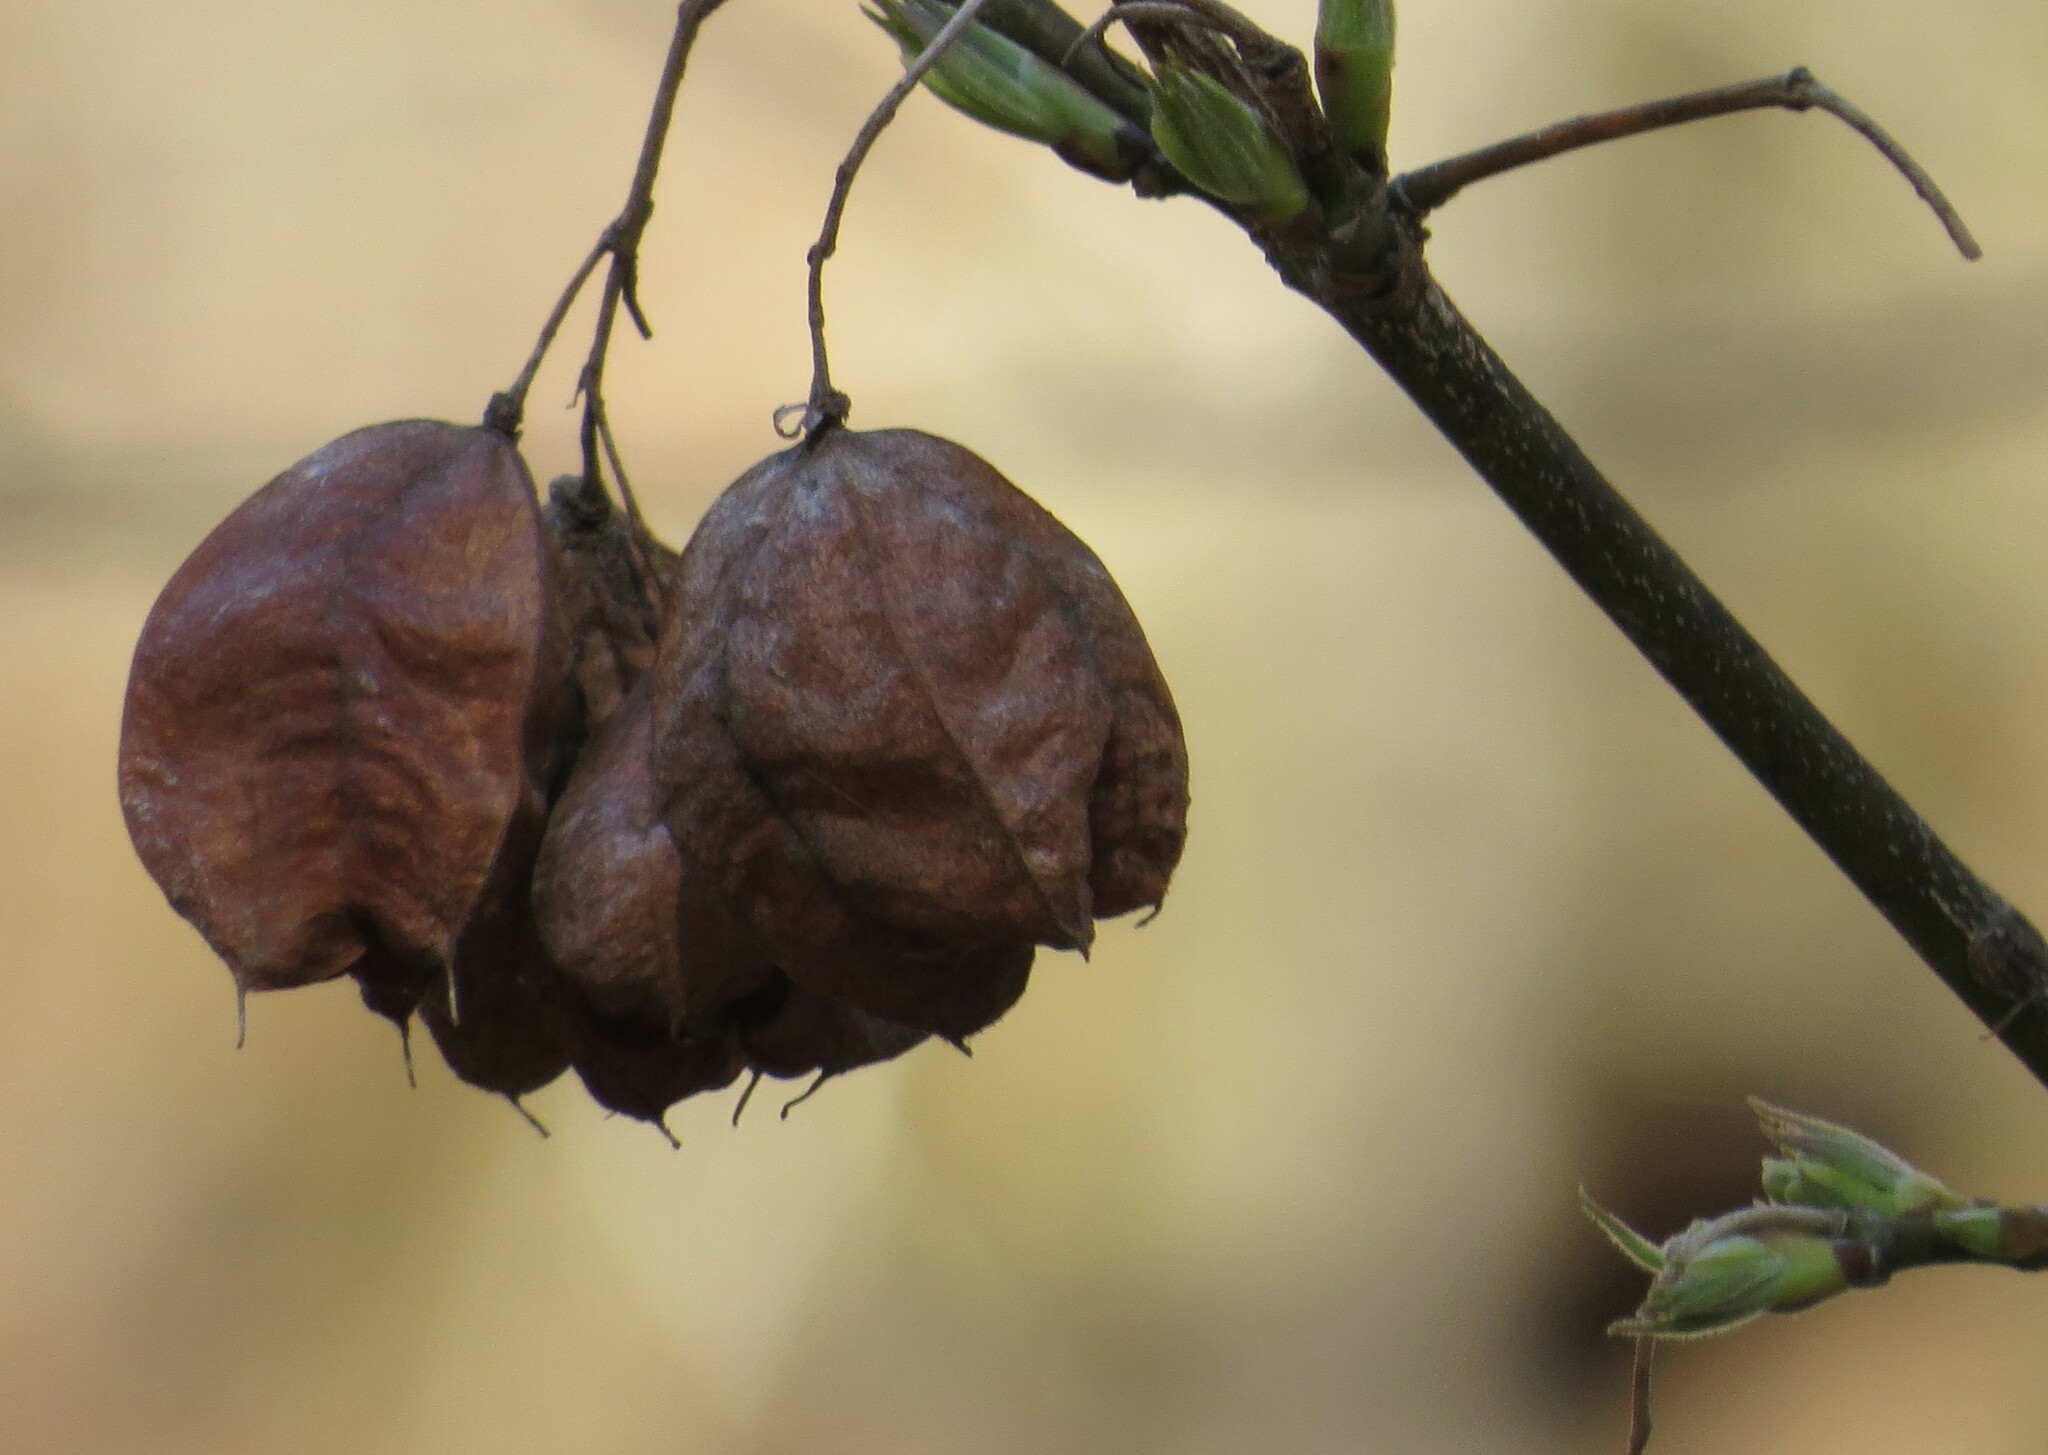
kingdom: Plantae
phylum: Tracheophyta
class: Magnoliopsida
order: Crossosomatales
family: Staphyleaceae
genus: Staphylea
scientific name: Staphylea trifolia
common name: American bladdernut
